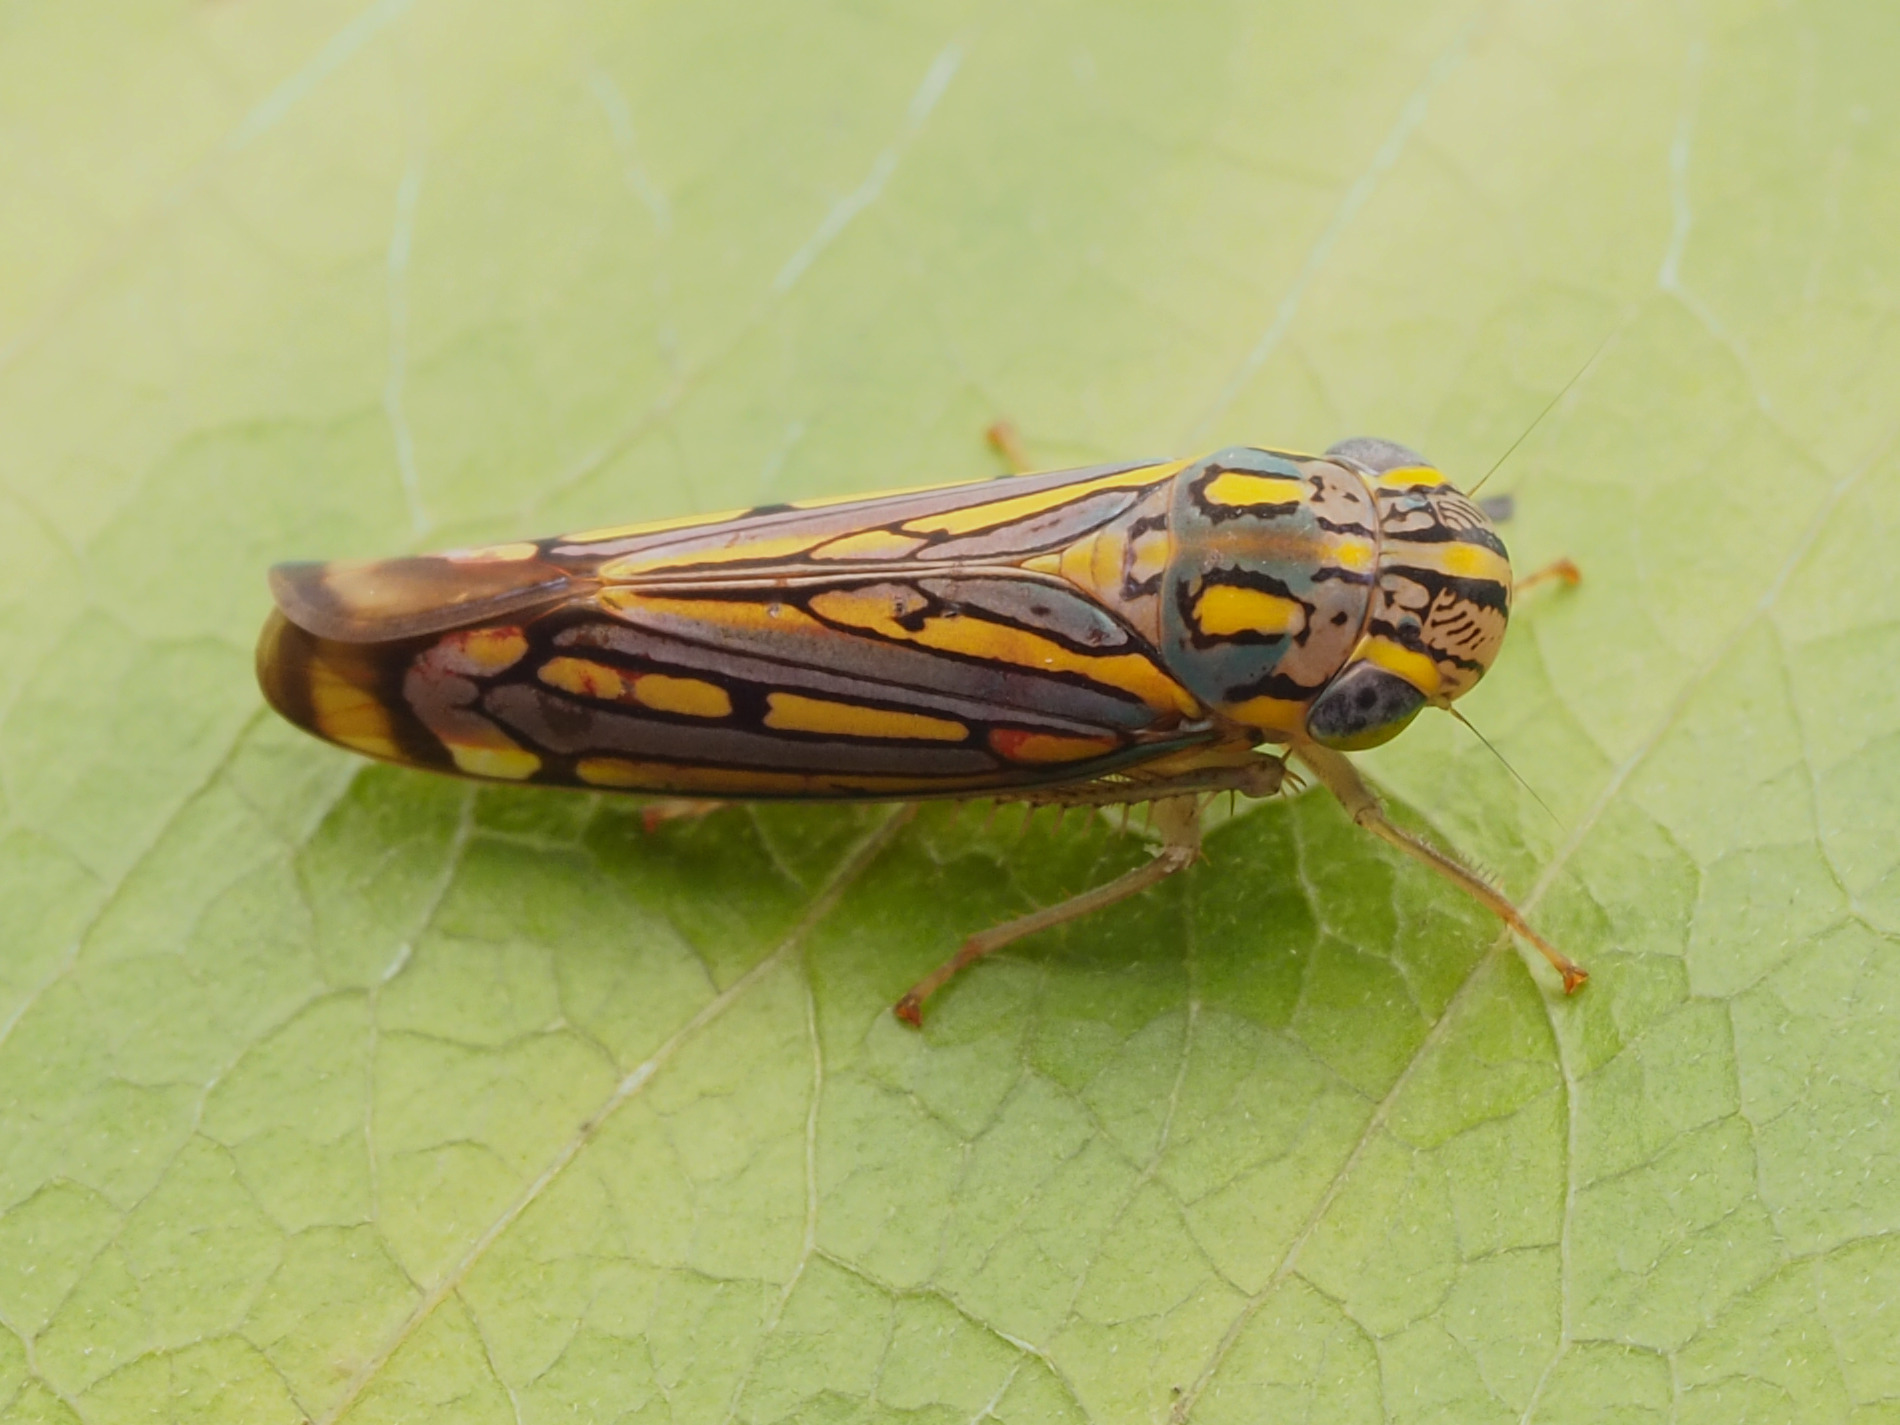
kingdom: Animalia
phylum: Arthropoda
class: Insecta
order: Hemiptera
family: Cicadellidae
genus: Apogonalia
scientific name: Apogonalia stalii
